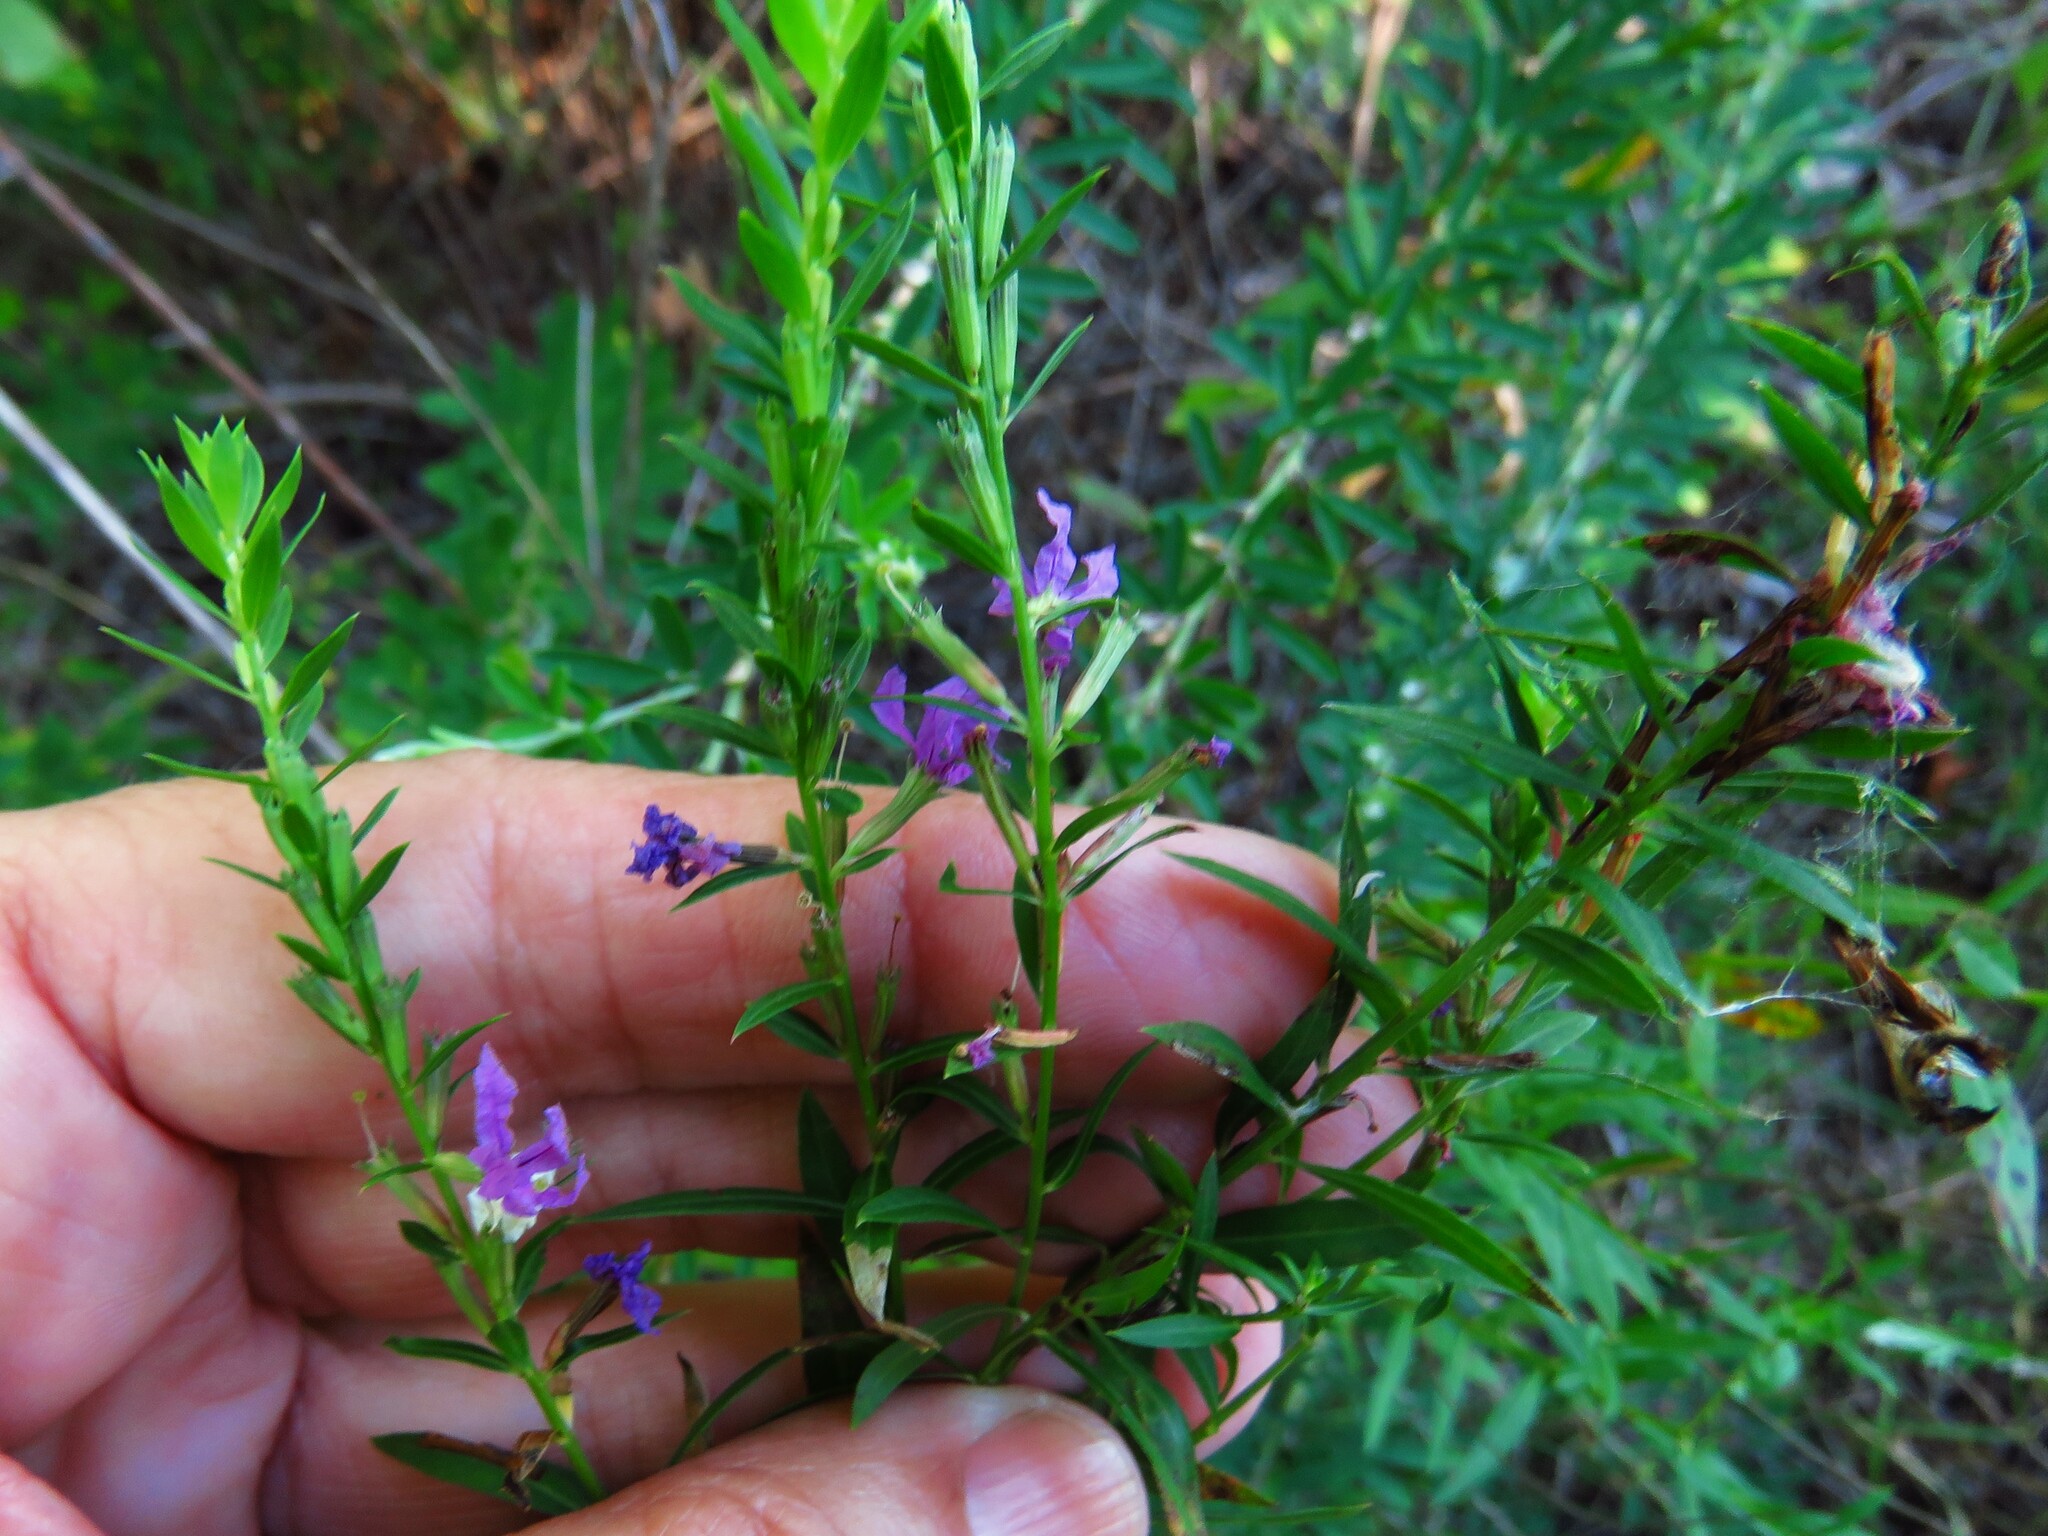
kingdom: Plantae
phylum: Tracheophyta
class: Magnoliopsida
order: Myrtales
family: Lythraceae
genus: Lythrum
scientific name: Lythrum alatum
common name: Winged loosestrife
